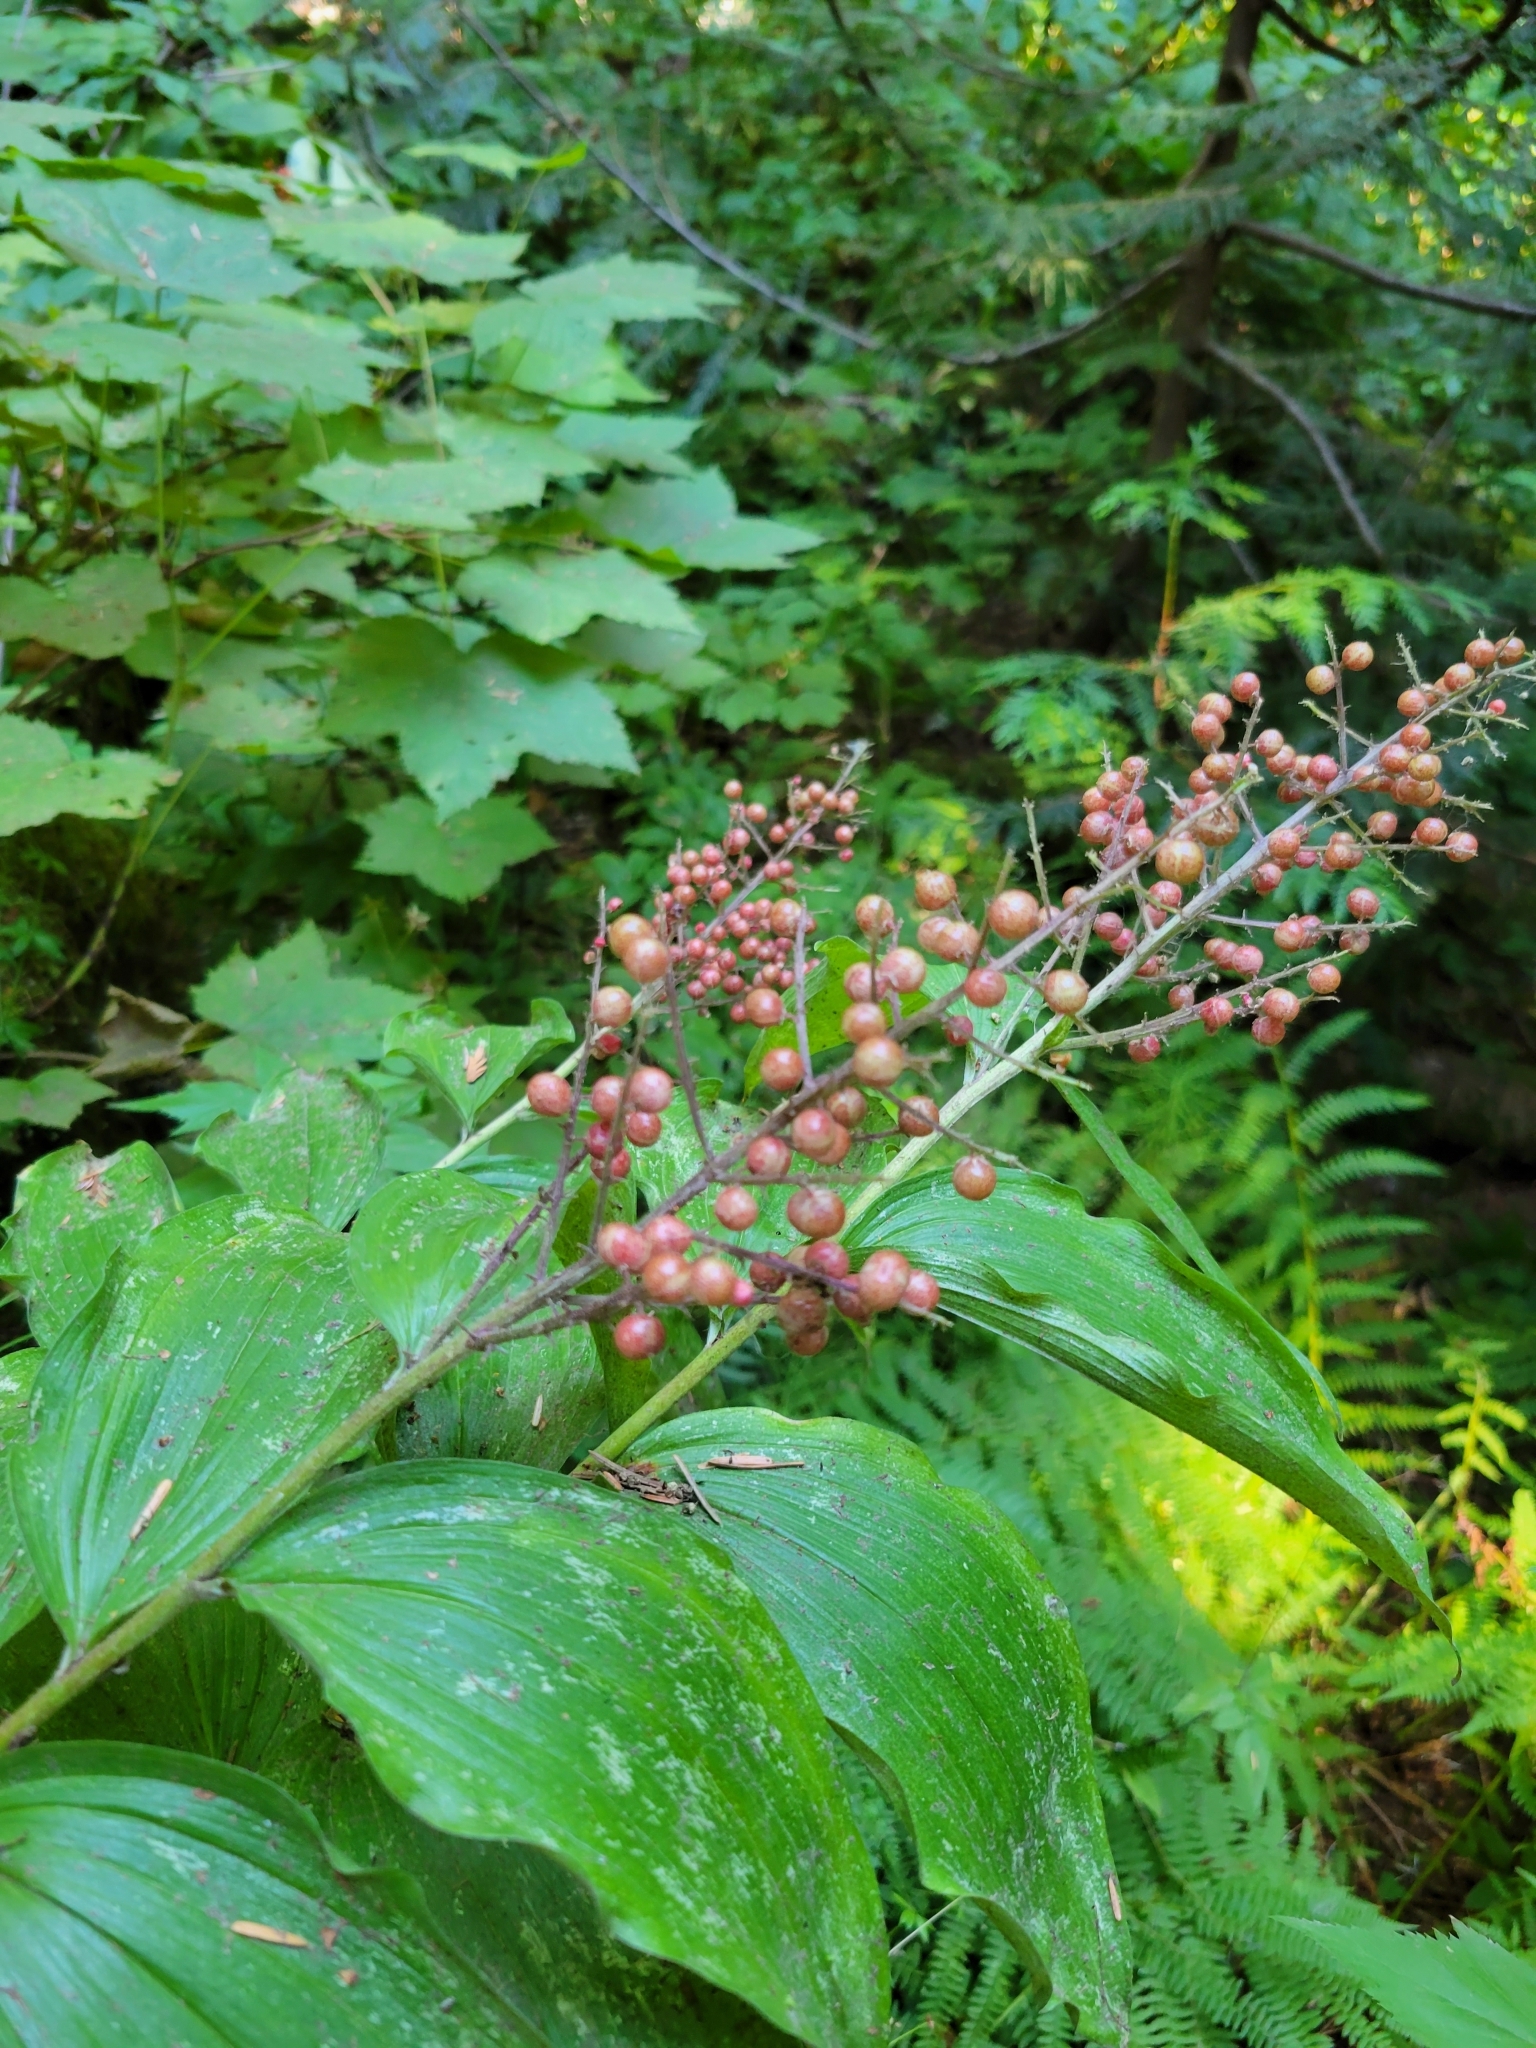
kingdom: Plantae
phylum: Tracheophyta
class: Liliopsida
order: Asparagales
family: Asparagaceae
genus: Maianthemum
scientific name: Maianthemum racemosum
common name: False spikenard
